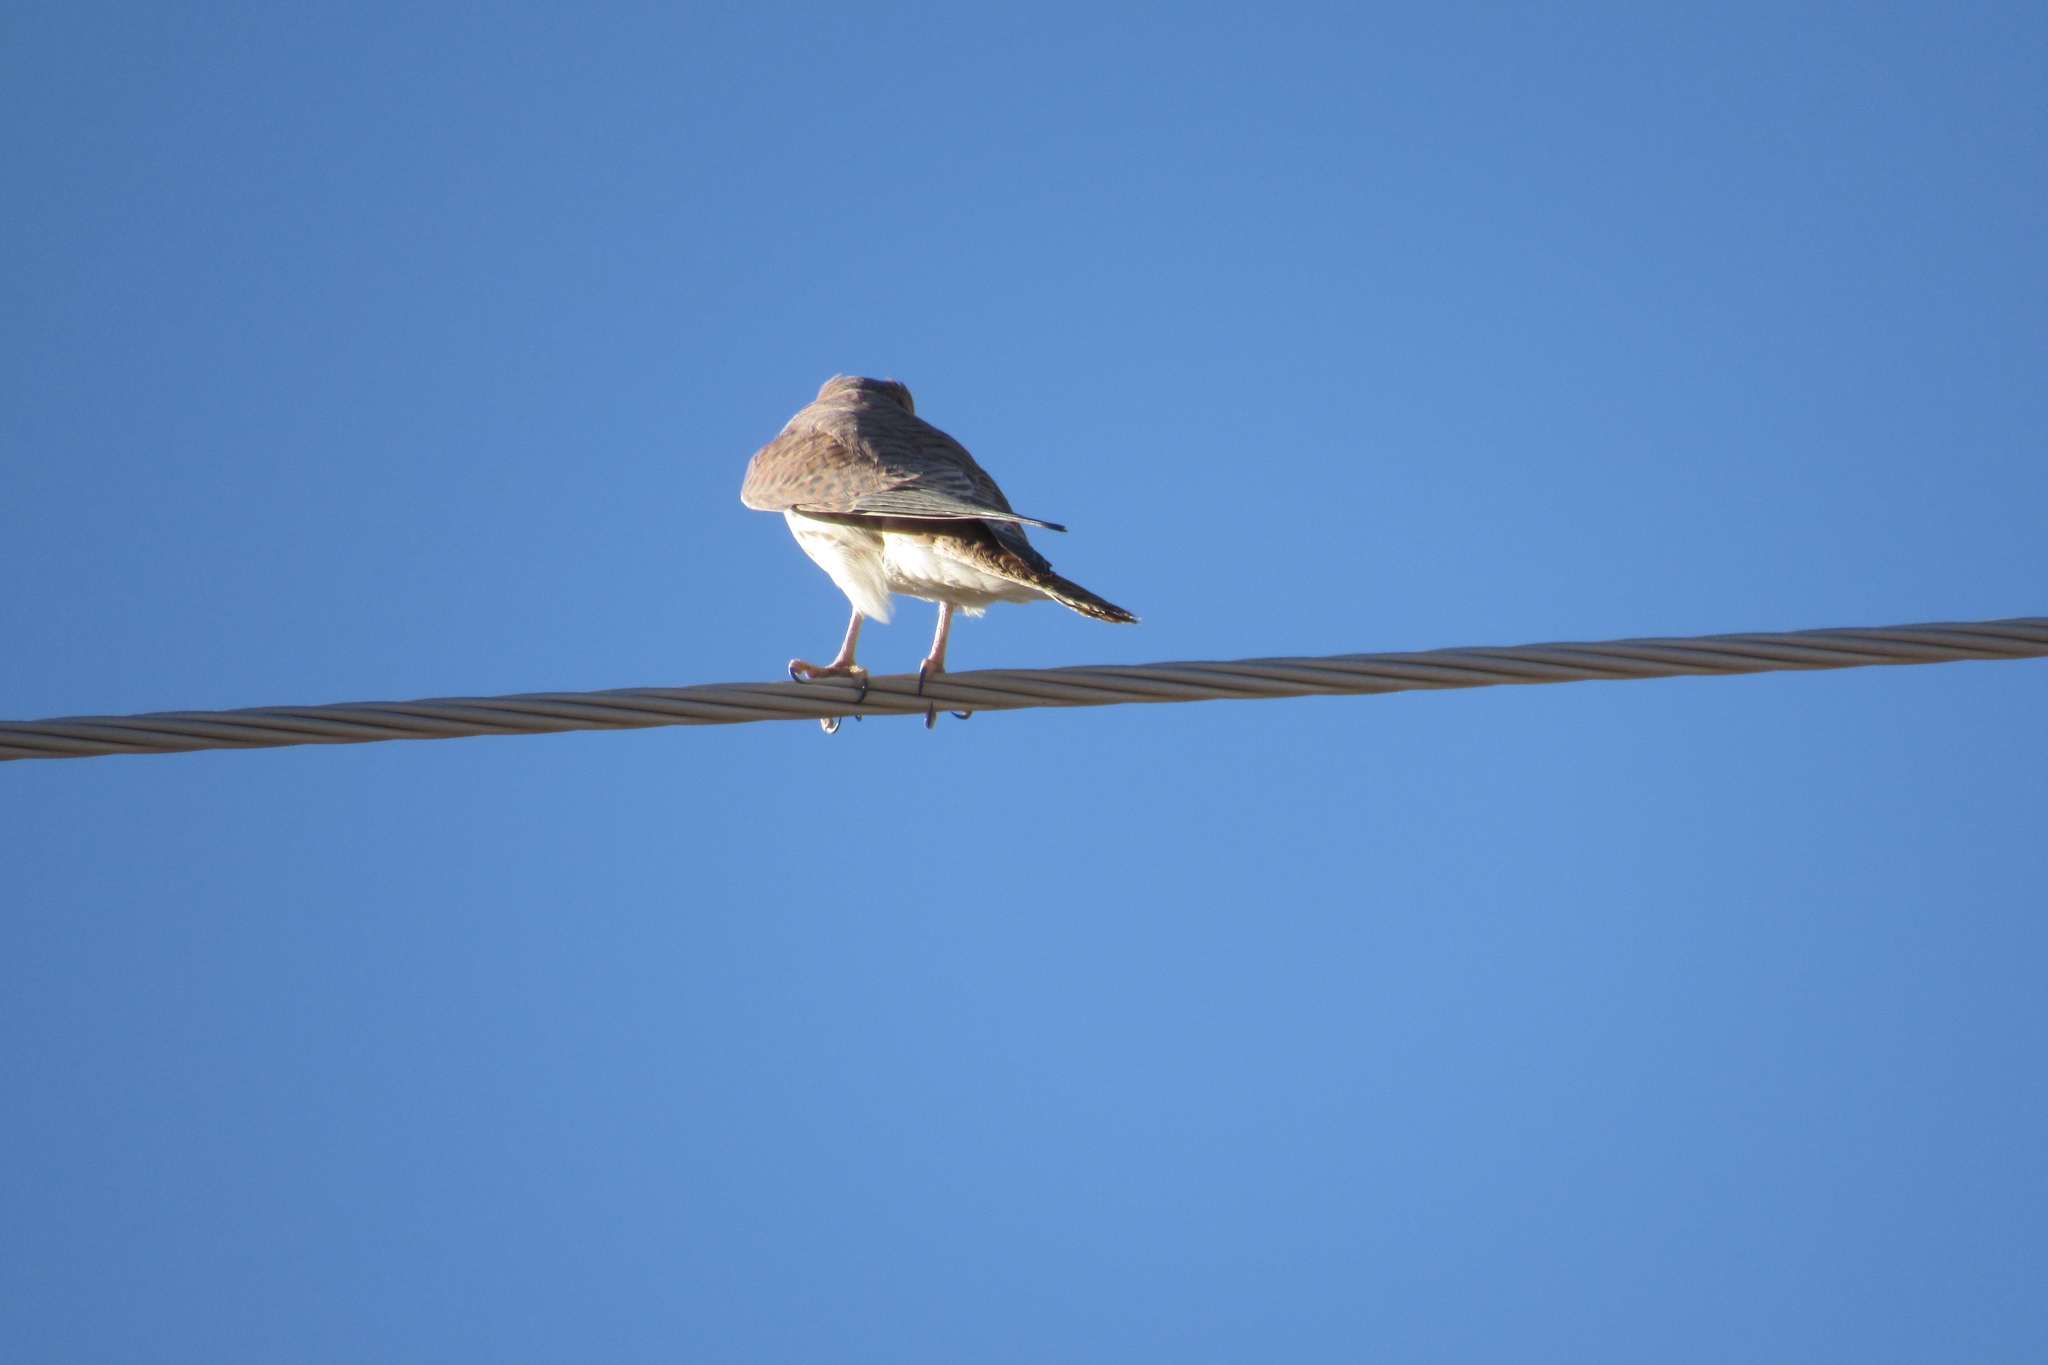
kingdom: Animalia
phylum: Chordata
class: Aves
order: Falconiformes
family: Falconidae
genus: Falco
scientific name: Falco sparverius
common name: American kestrel
